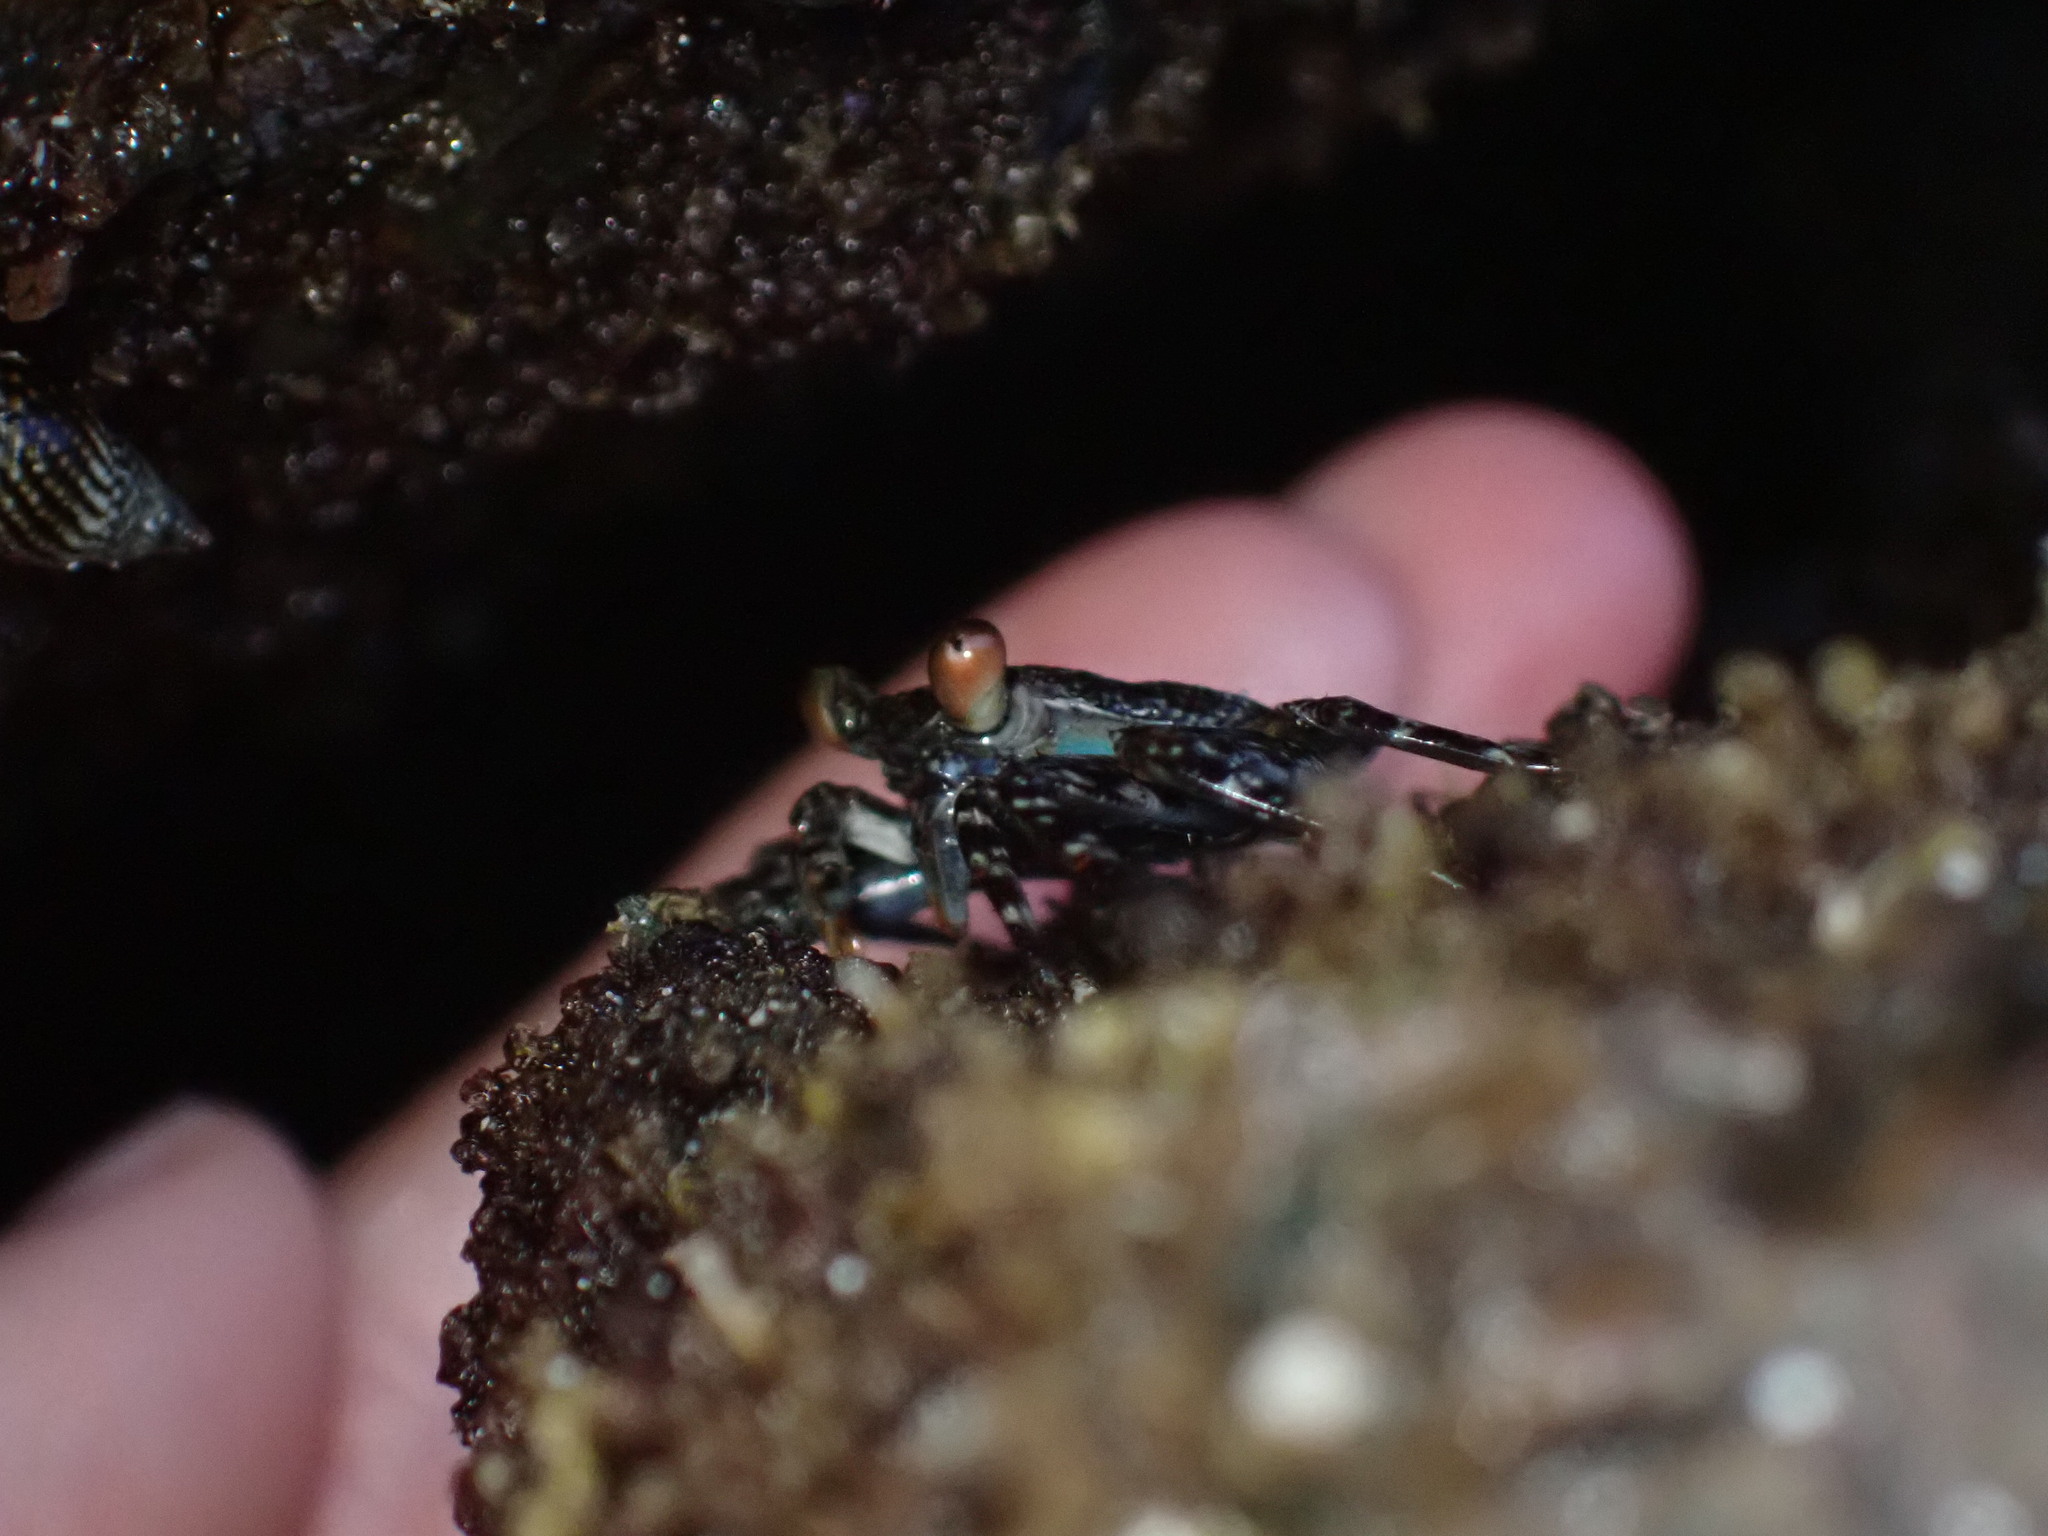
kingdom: Animalia
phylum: Arthropoda
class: Malacostraca
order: Decapoda
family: Grapsidae
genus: Grapsus
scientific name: Grapsus grapsus
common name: Sally lightfoot
